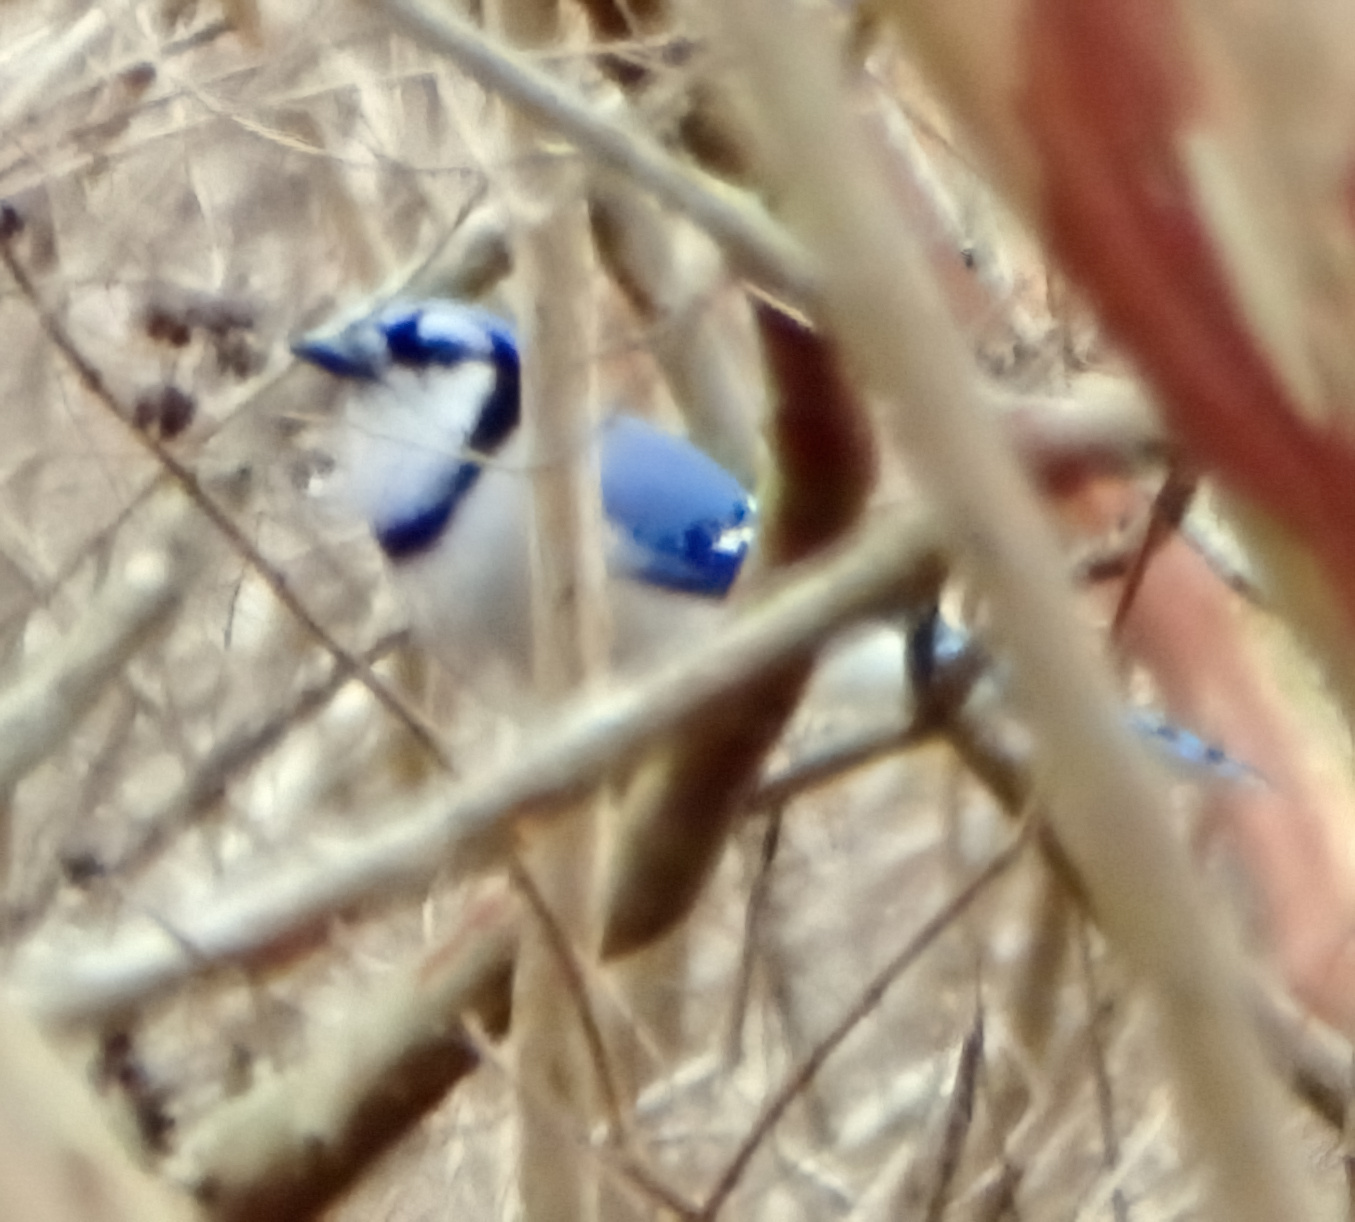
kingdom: Animalia
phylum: Chordata
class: Aves
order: Passeriformes
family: Corvidae
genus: Cyanocitta
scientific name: Cyanocitta cristata
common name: Blue jay
